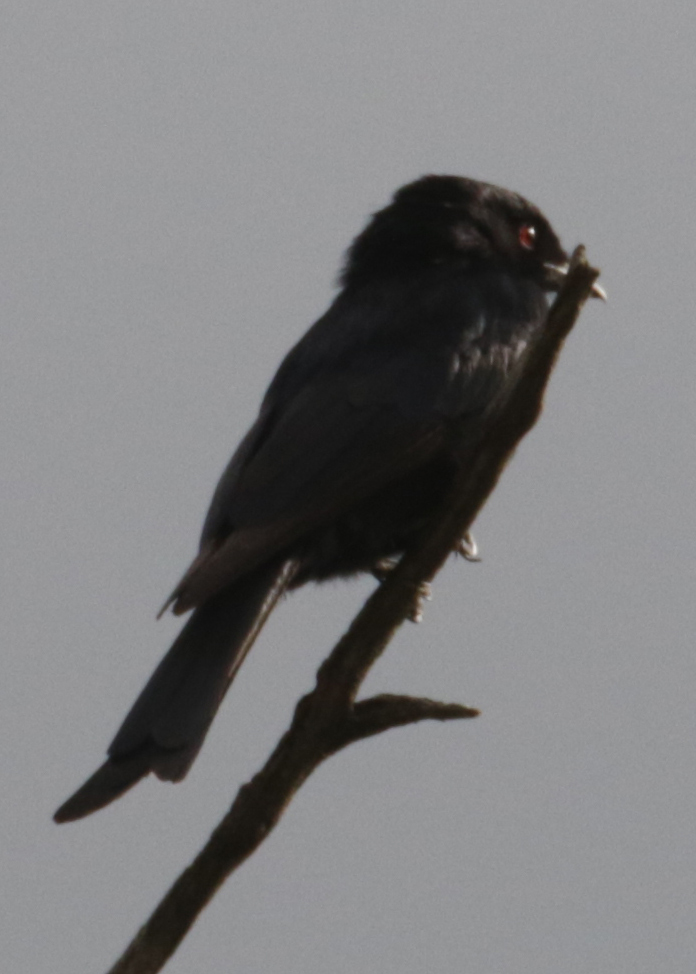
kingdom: Animalia
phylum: Chordata
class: Aves
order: Passeriformes
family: Dicruridae
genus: Dicrurus
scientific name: Dicrurus adsimilis
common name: Fork-tailed drongo
